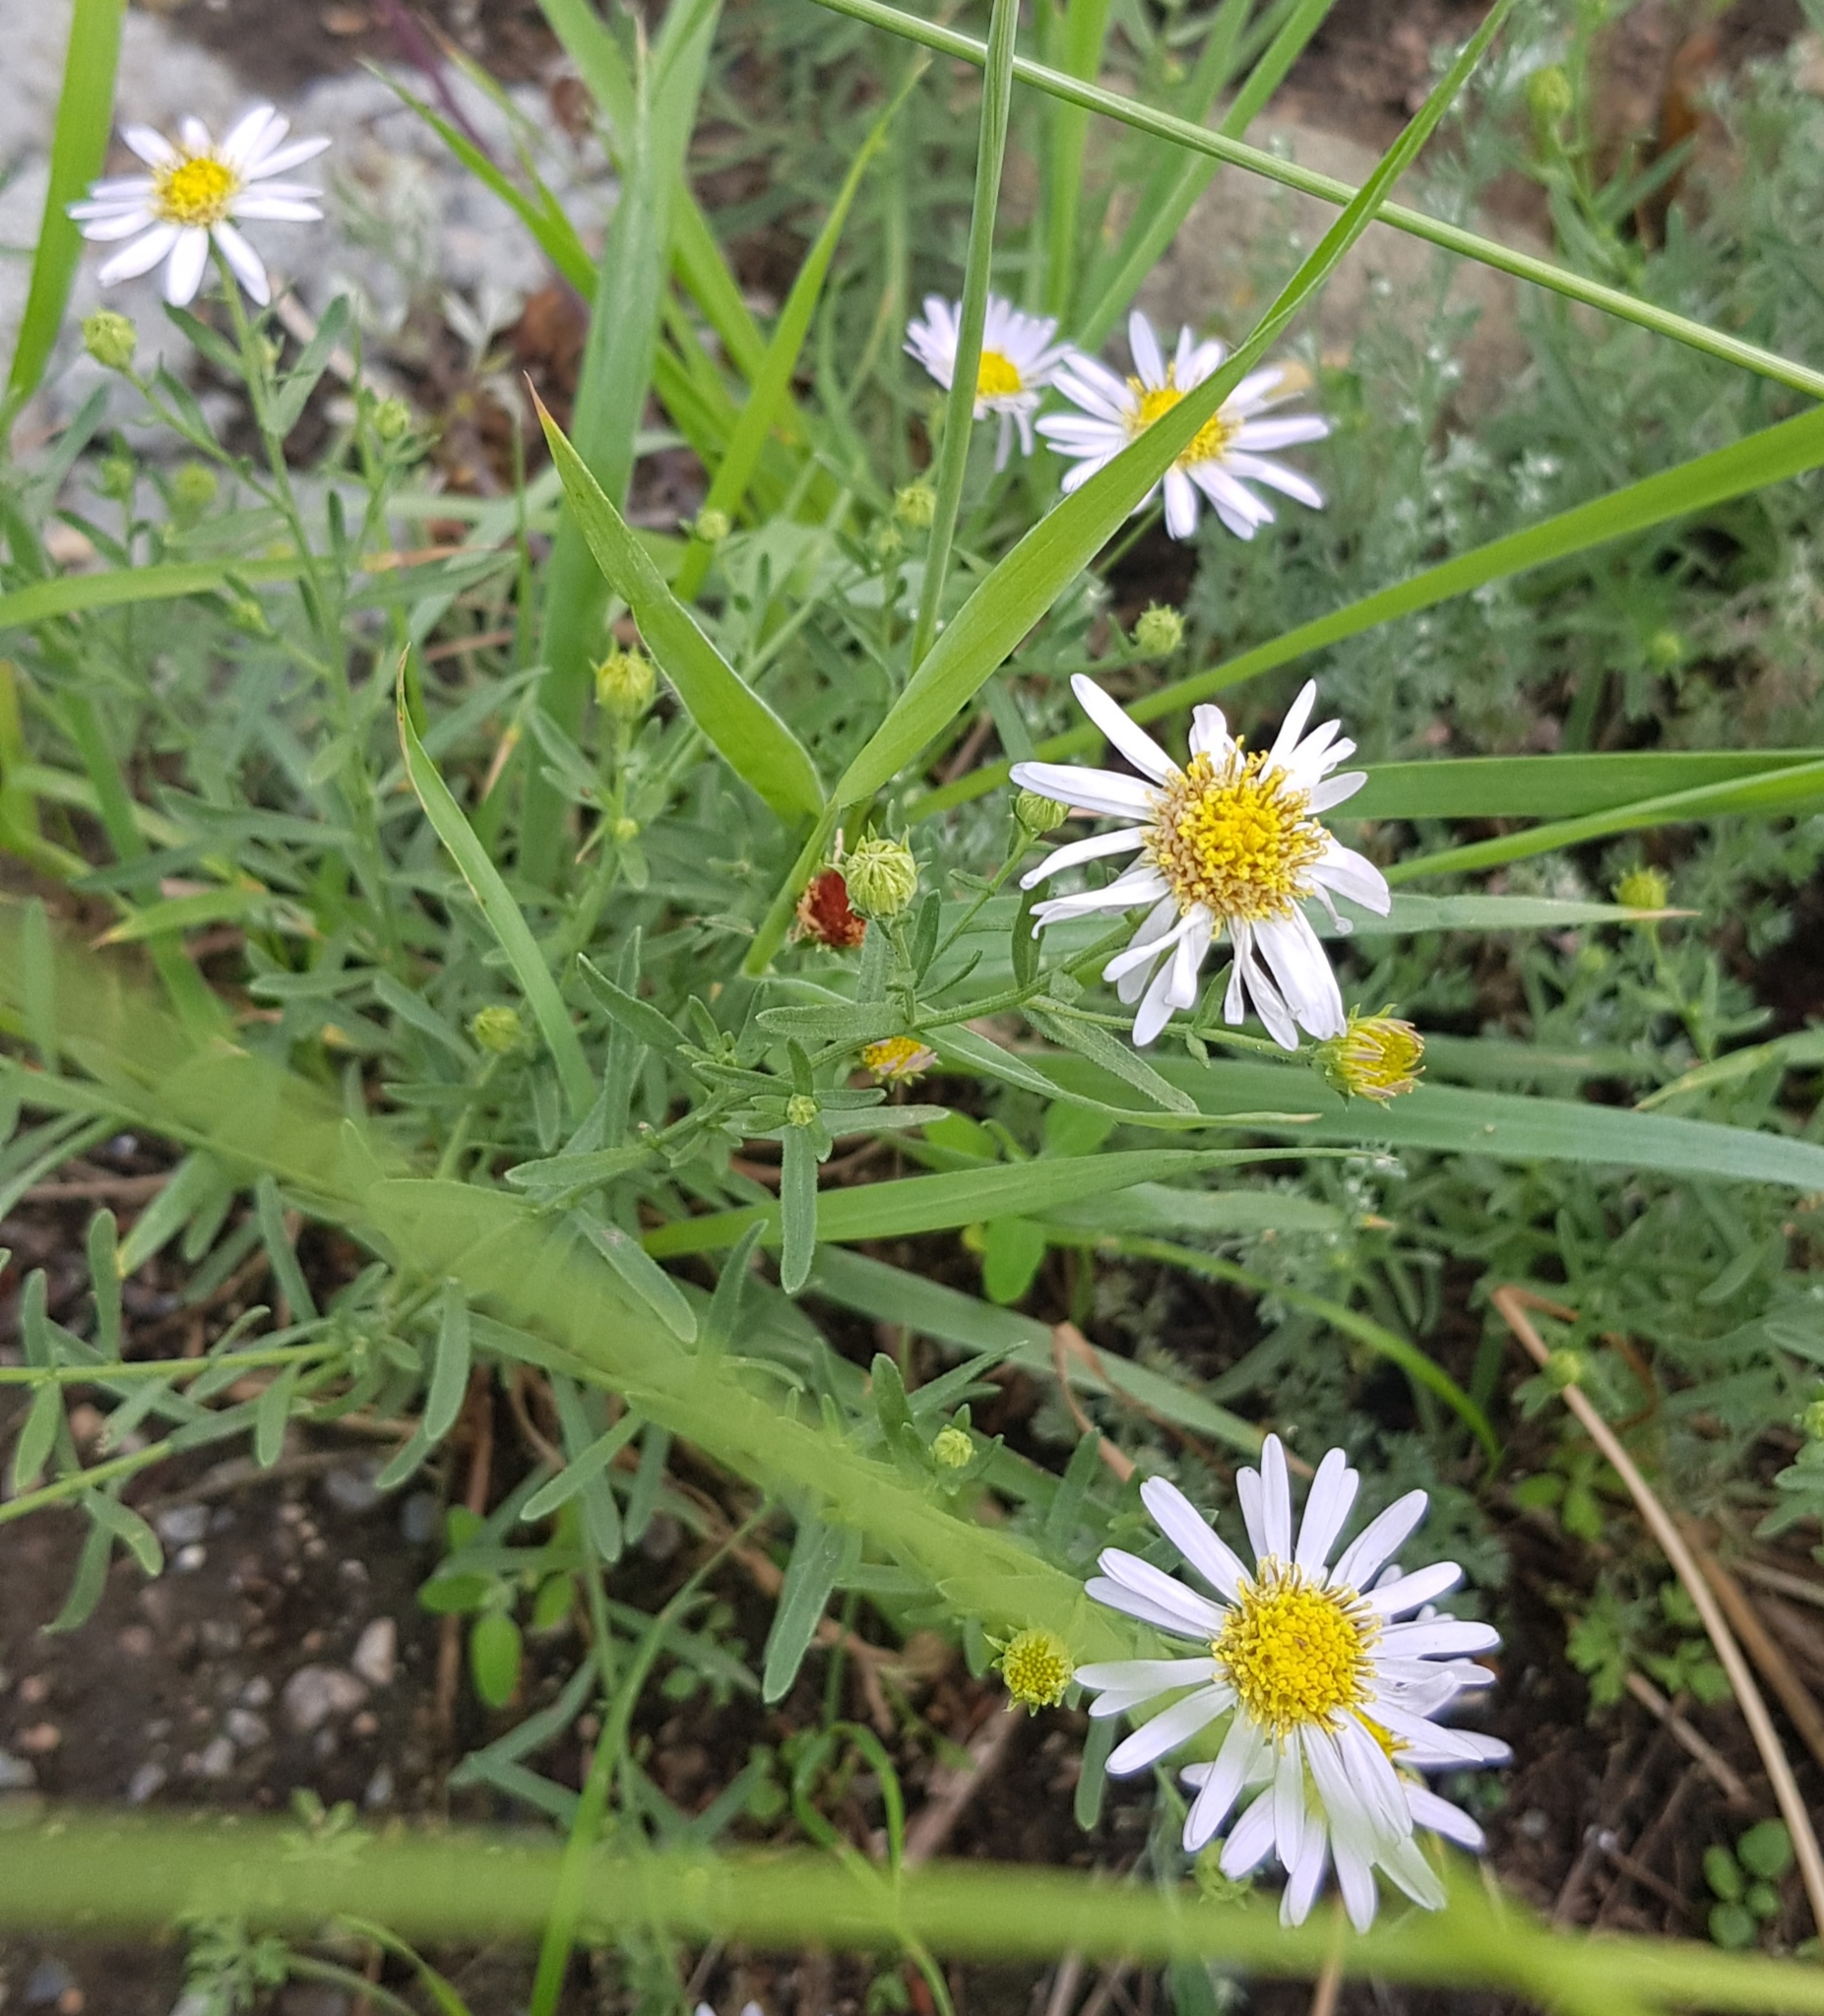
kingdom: Plantae
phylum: Tracheophyta
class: Magnoliopsida
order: Asterales
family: Asteraceae
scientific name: Asteraceae
